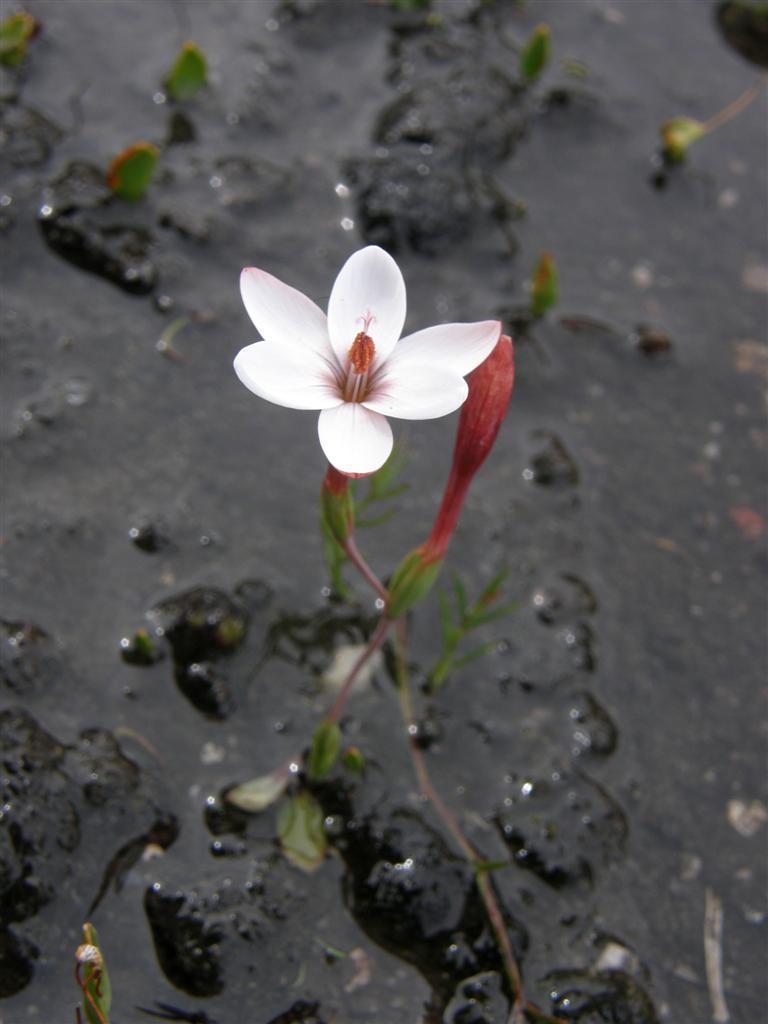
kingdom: Plantae
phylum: Tracheophyta
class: Liliopsida
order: Asparagales
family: Iridaceae
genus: Geissorhiza
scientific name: Geissorhiza ovata
